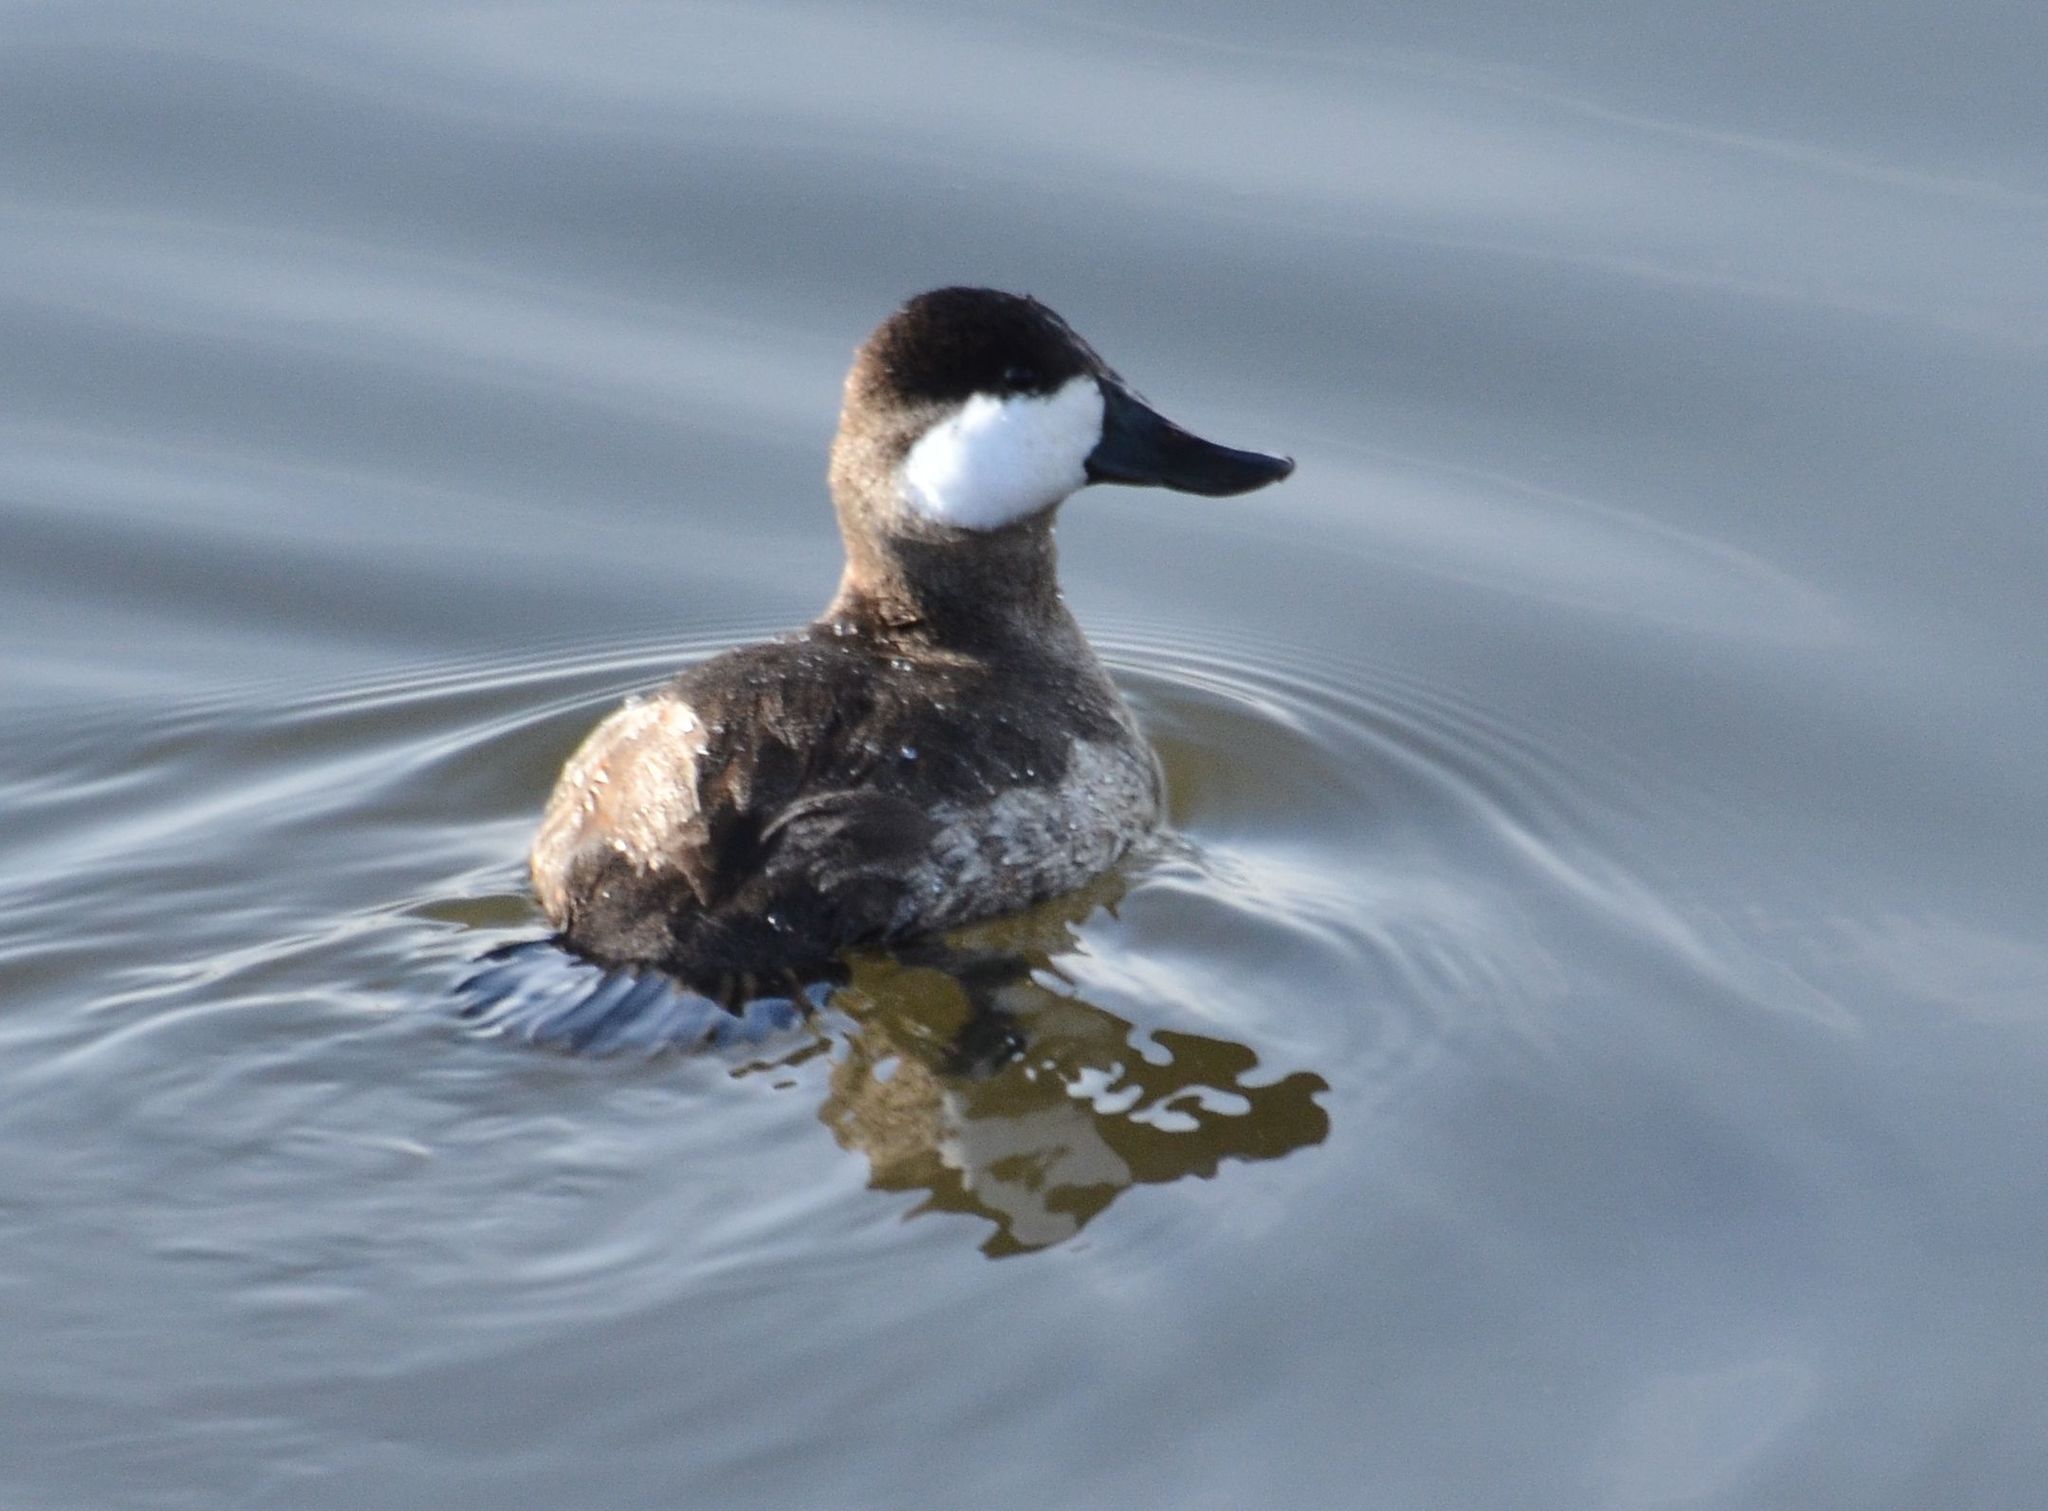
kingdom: Animalia
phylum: Chordata
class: Aves
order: Anseriformes
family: Anatidae
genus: Oxyura
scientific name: Oxyura jamaicensis
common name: Ruddy duck
